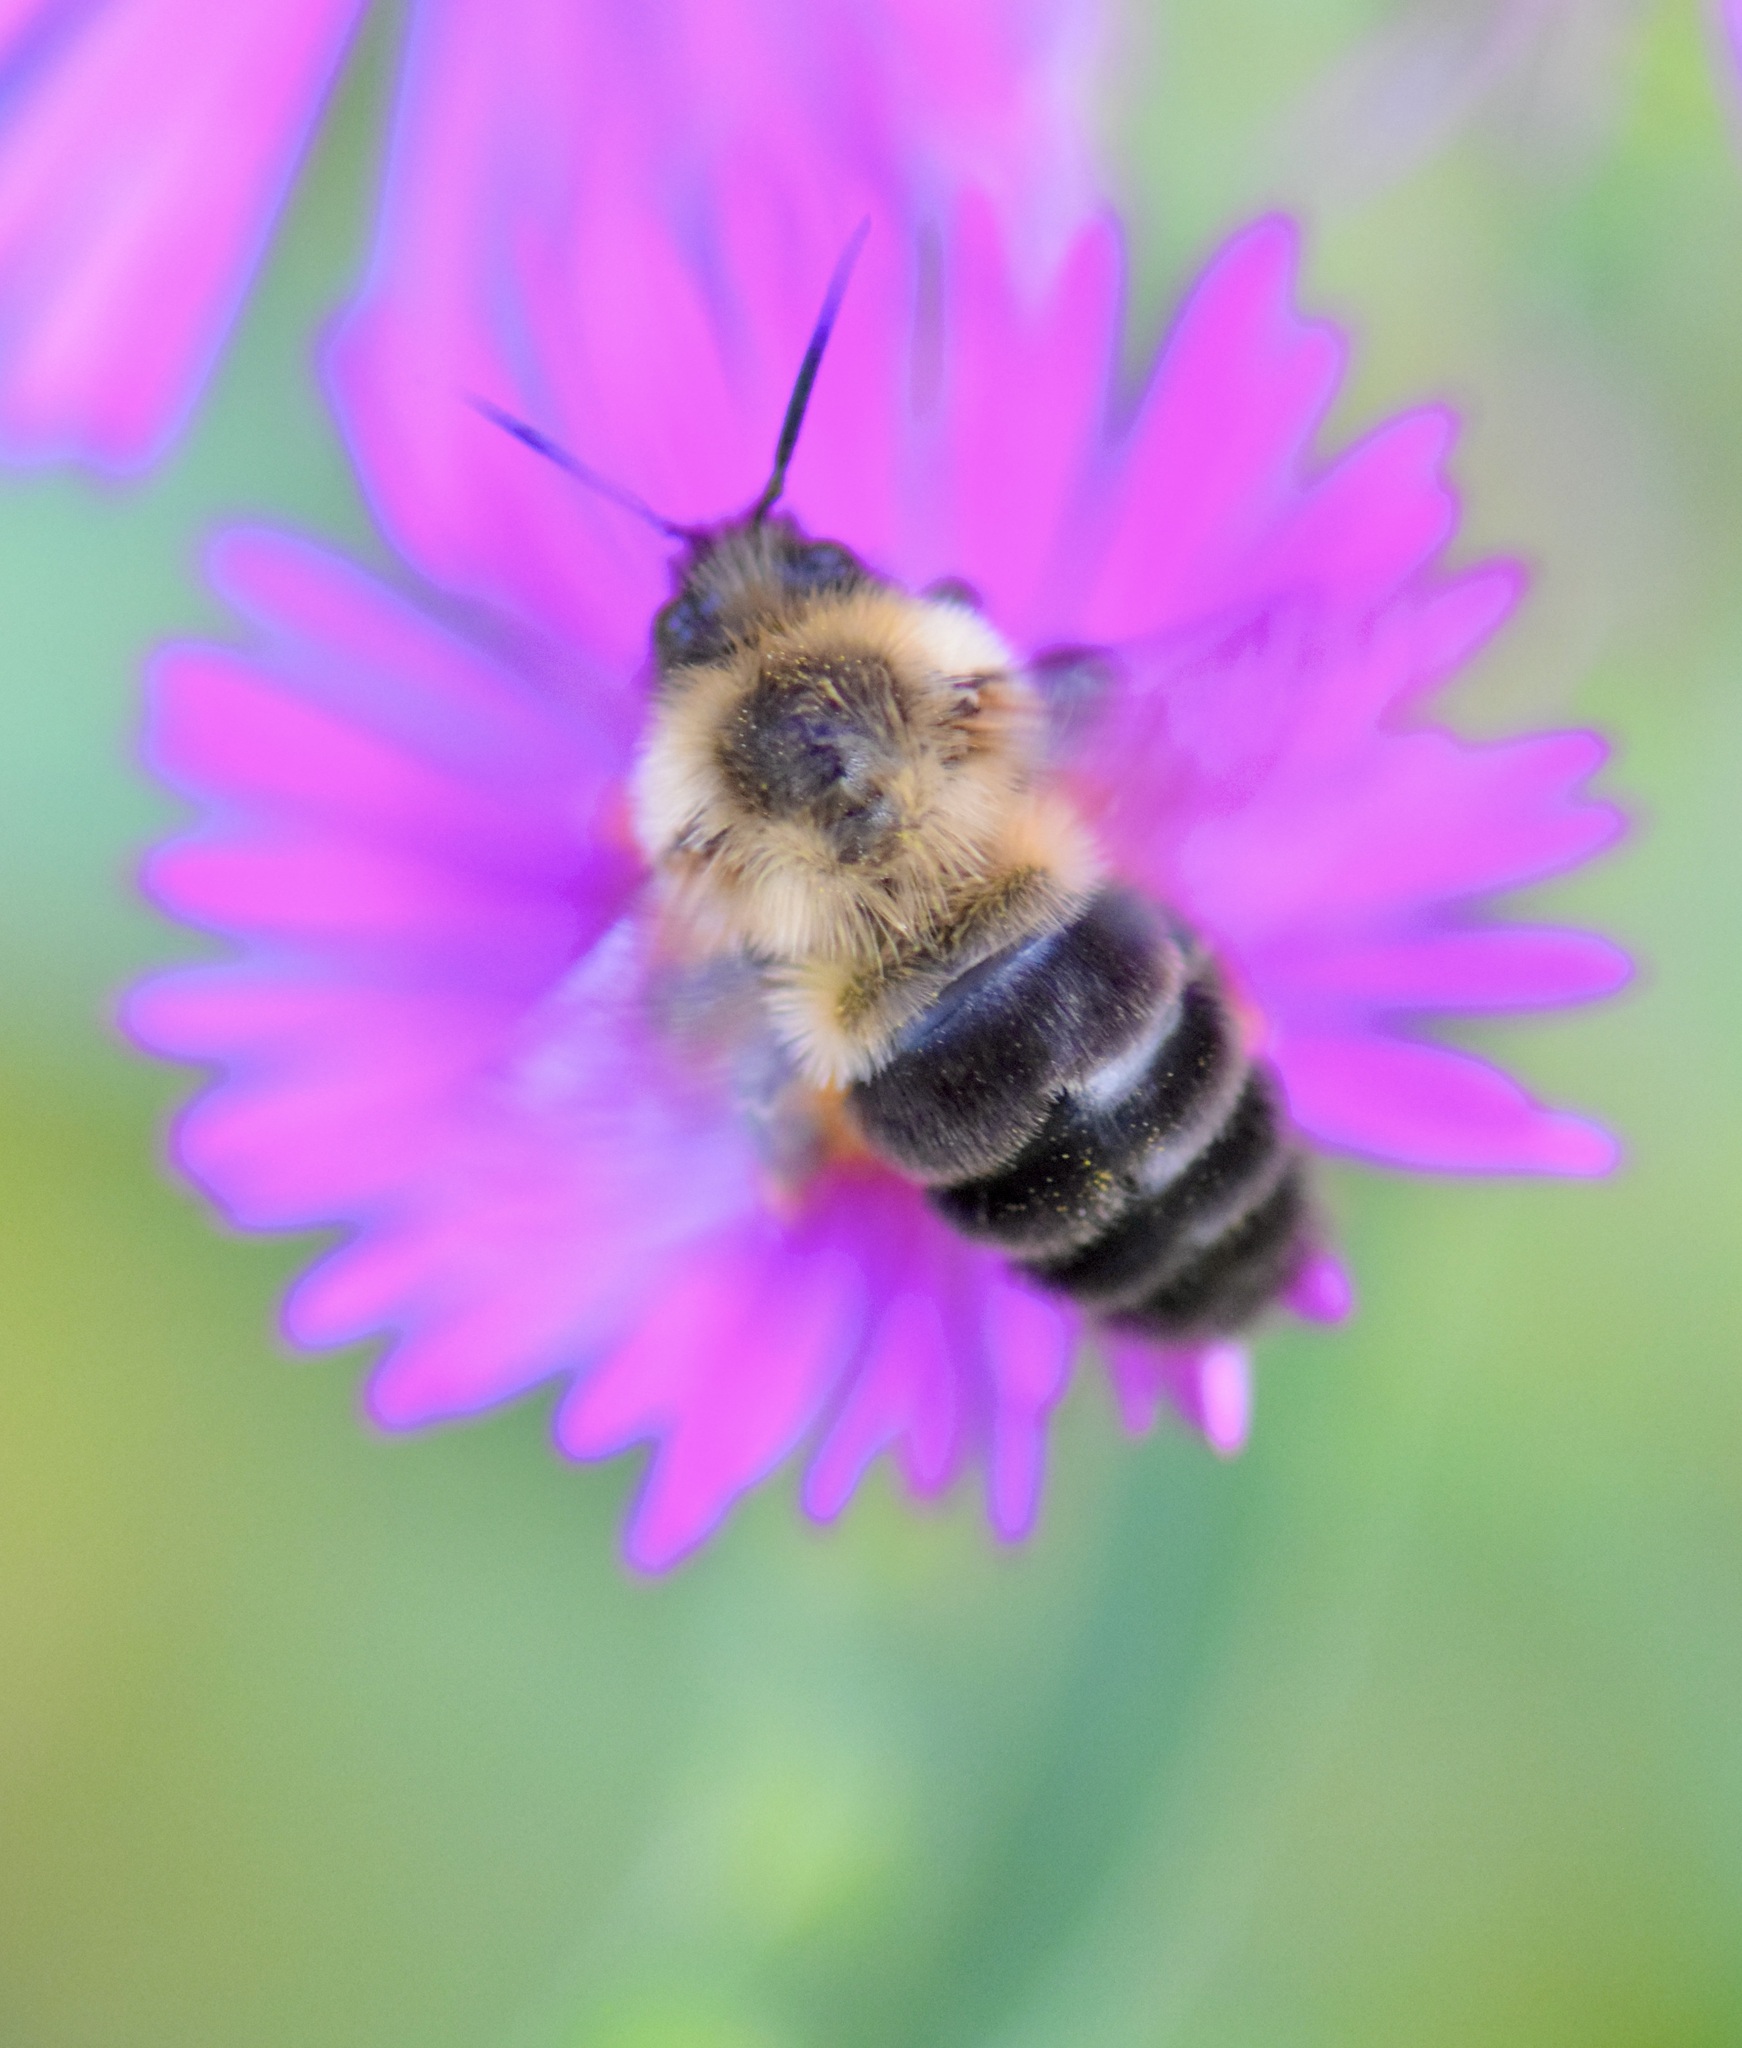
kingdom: Animalia
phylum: Arthropoda
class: Insecta
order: Hymenoptera
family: Apidae
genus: Bombus
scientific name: Bombus impatiens
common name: Common eastern bumble bee
